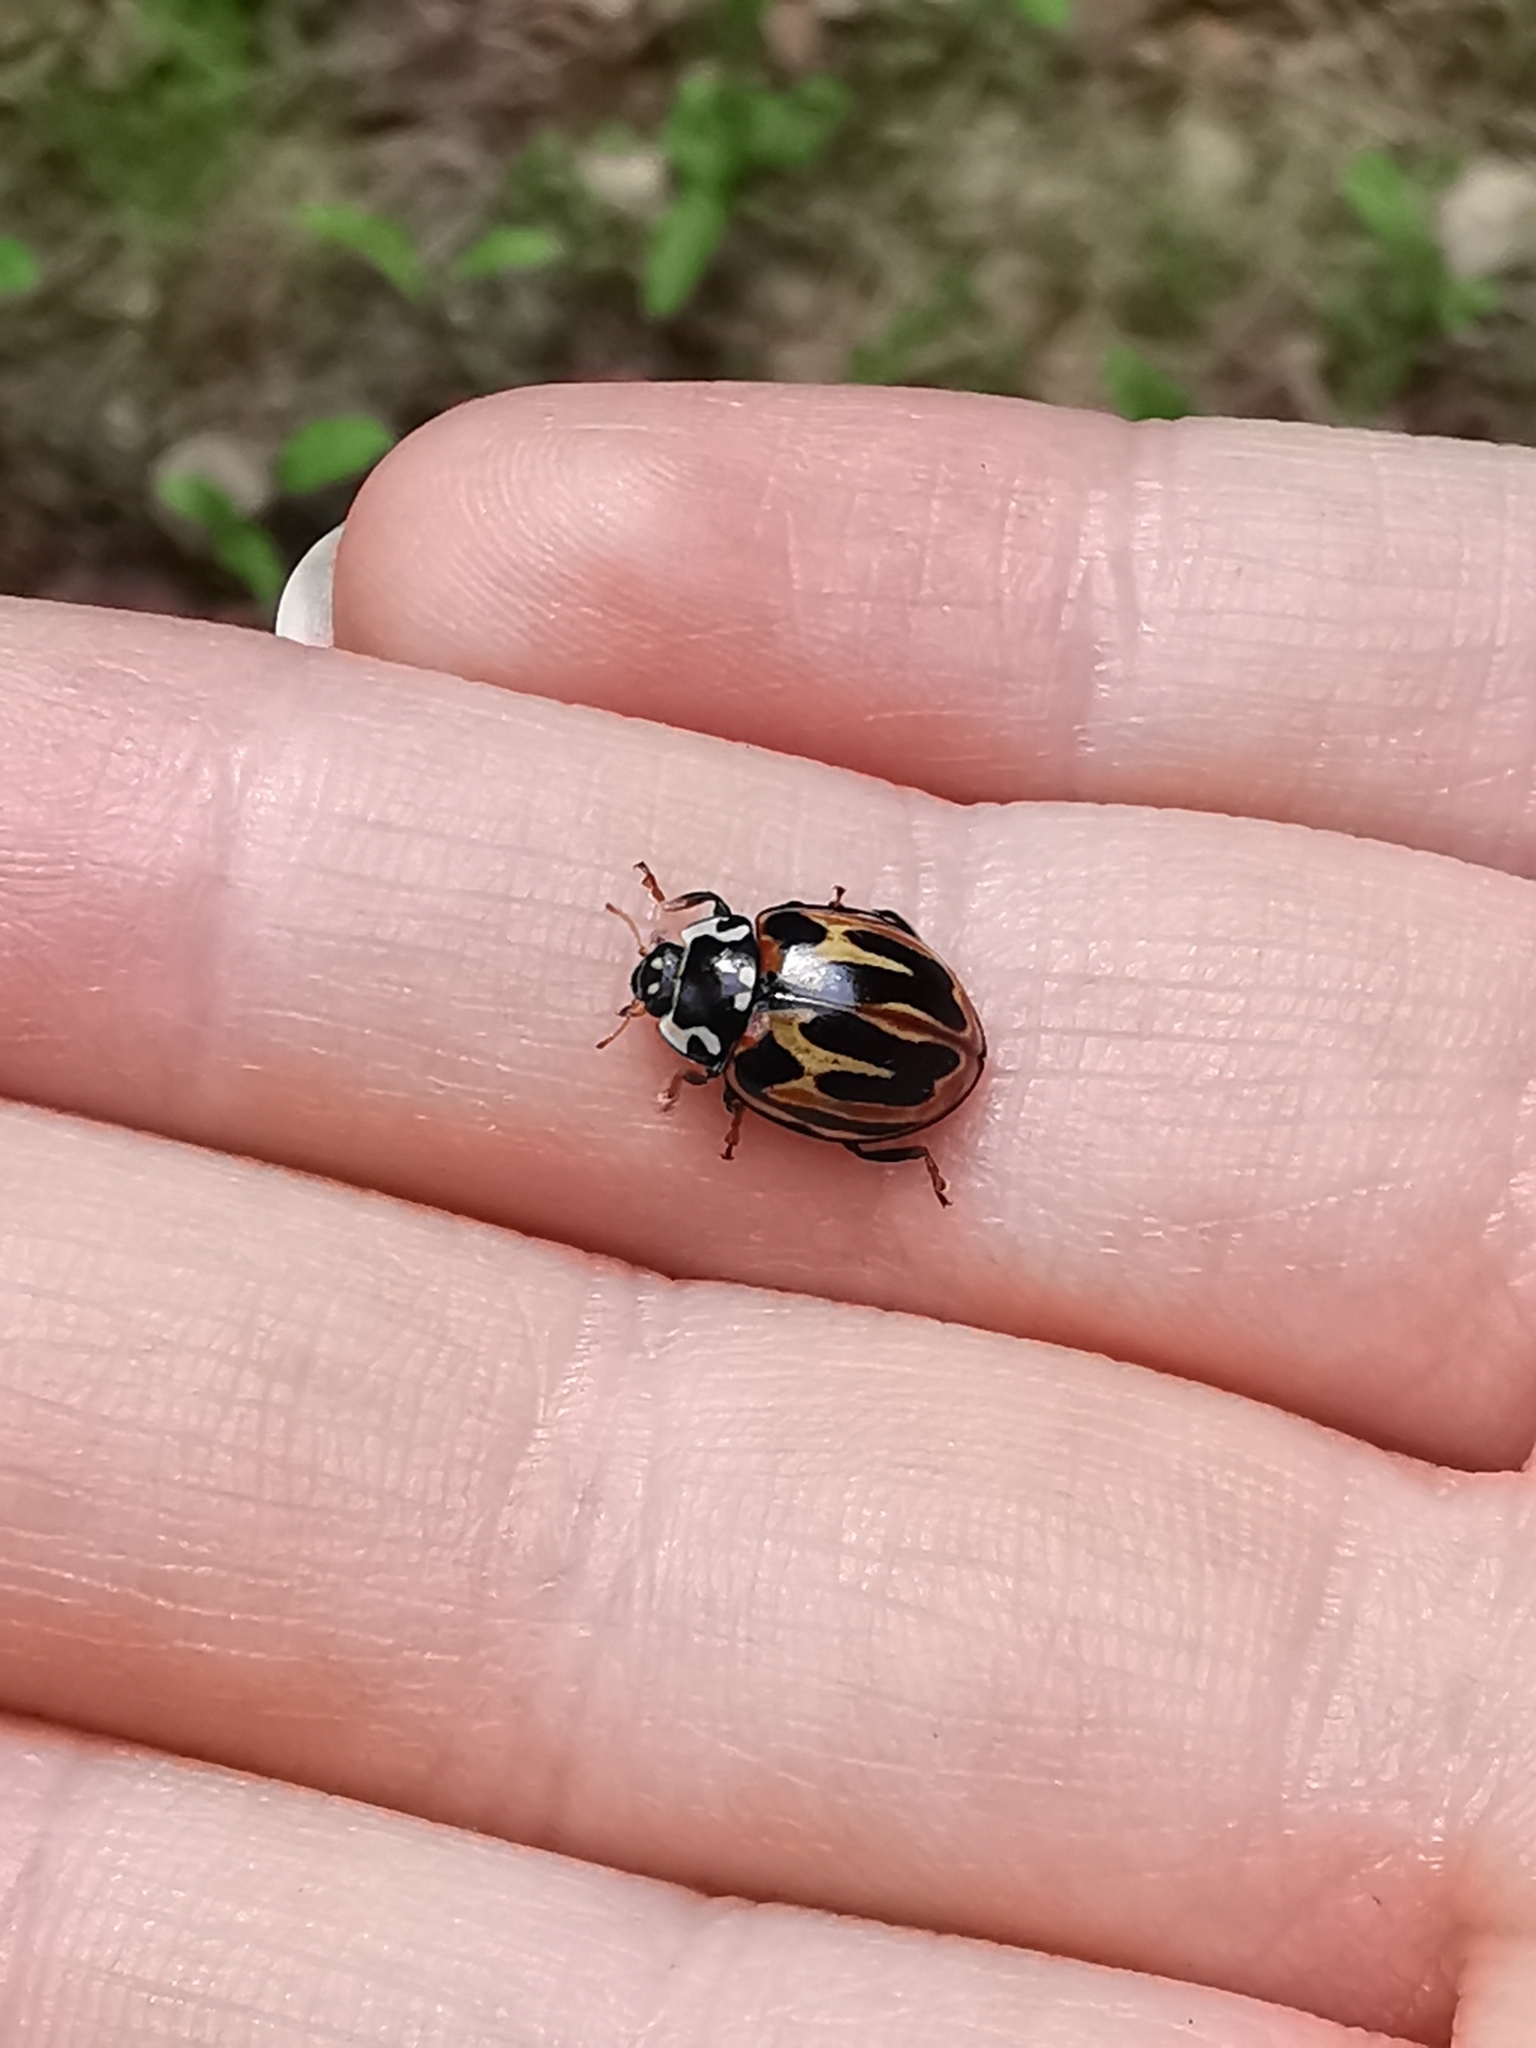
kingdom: Animalia
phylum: Arthropoda
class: Insecta
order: Coleoptera
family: Coccinellidae
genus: Anatis
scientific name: Anatis ocellata
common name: Eyed ladybird
